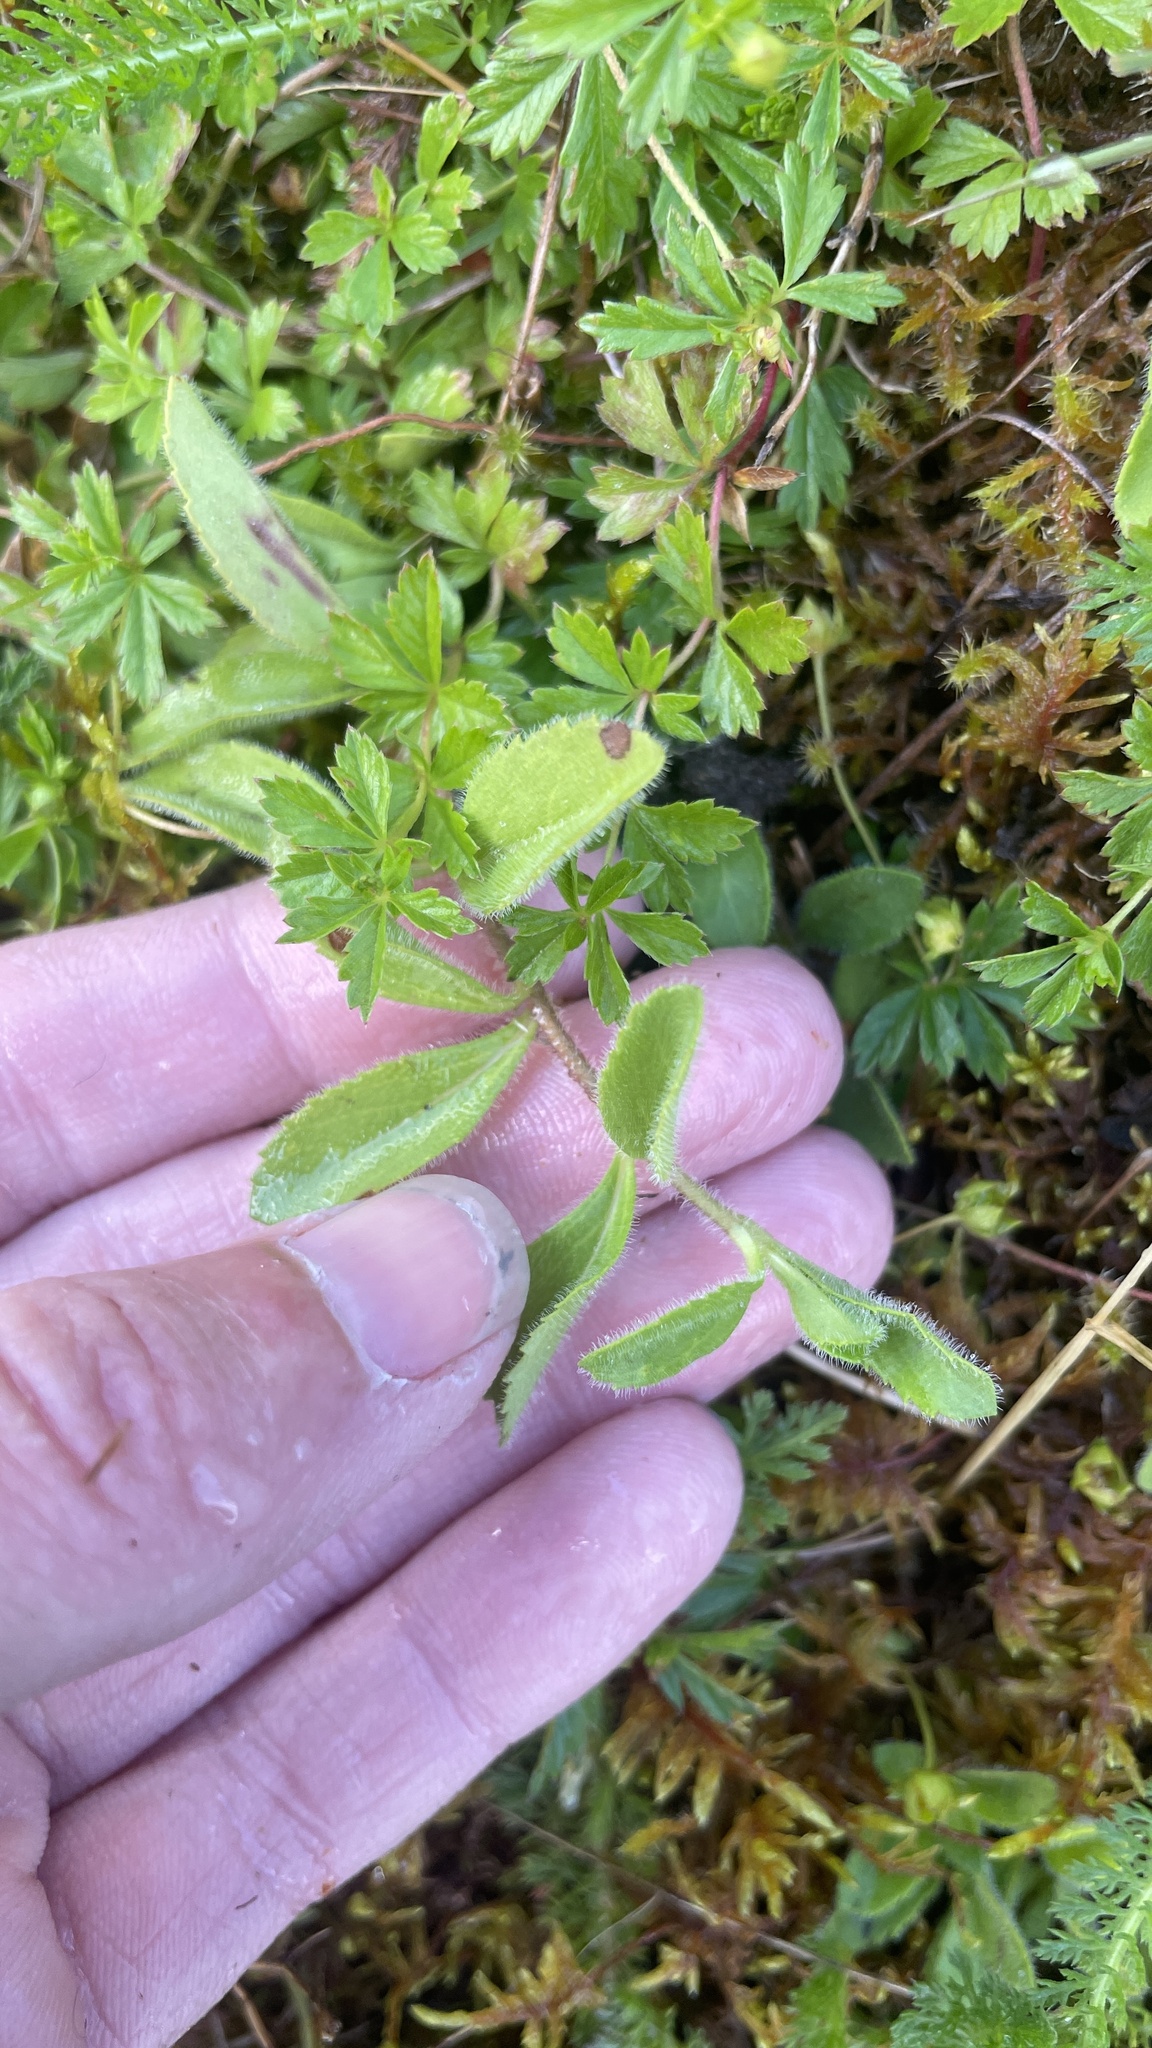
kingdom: Plantae
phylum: Tracheophyta
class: Magnoliopsida
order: Lamiales
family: Plantaginaceae
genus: Veronica
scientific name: Veronica officinalis
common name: Common speedwell
